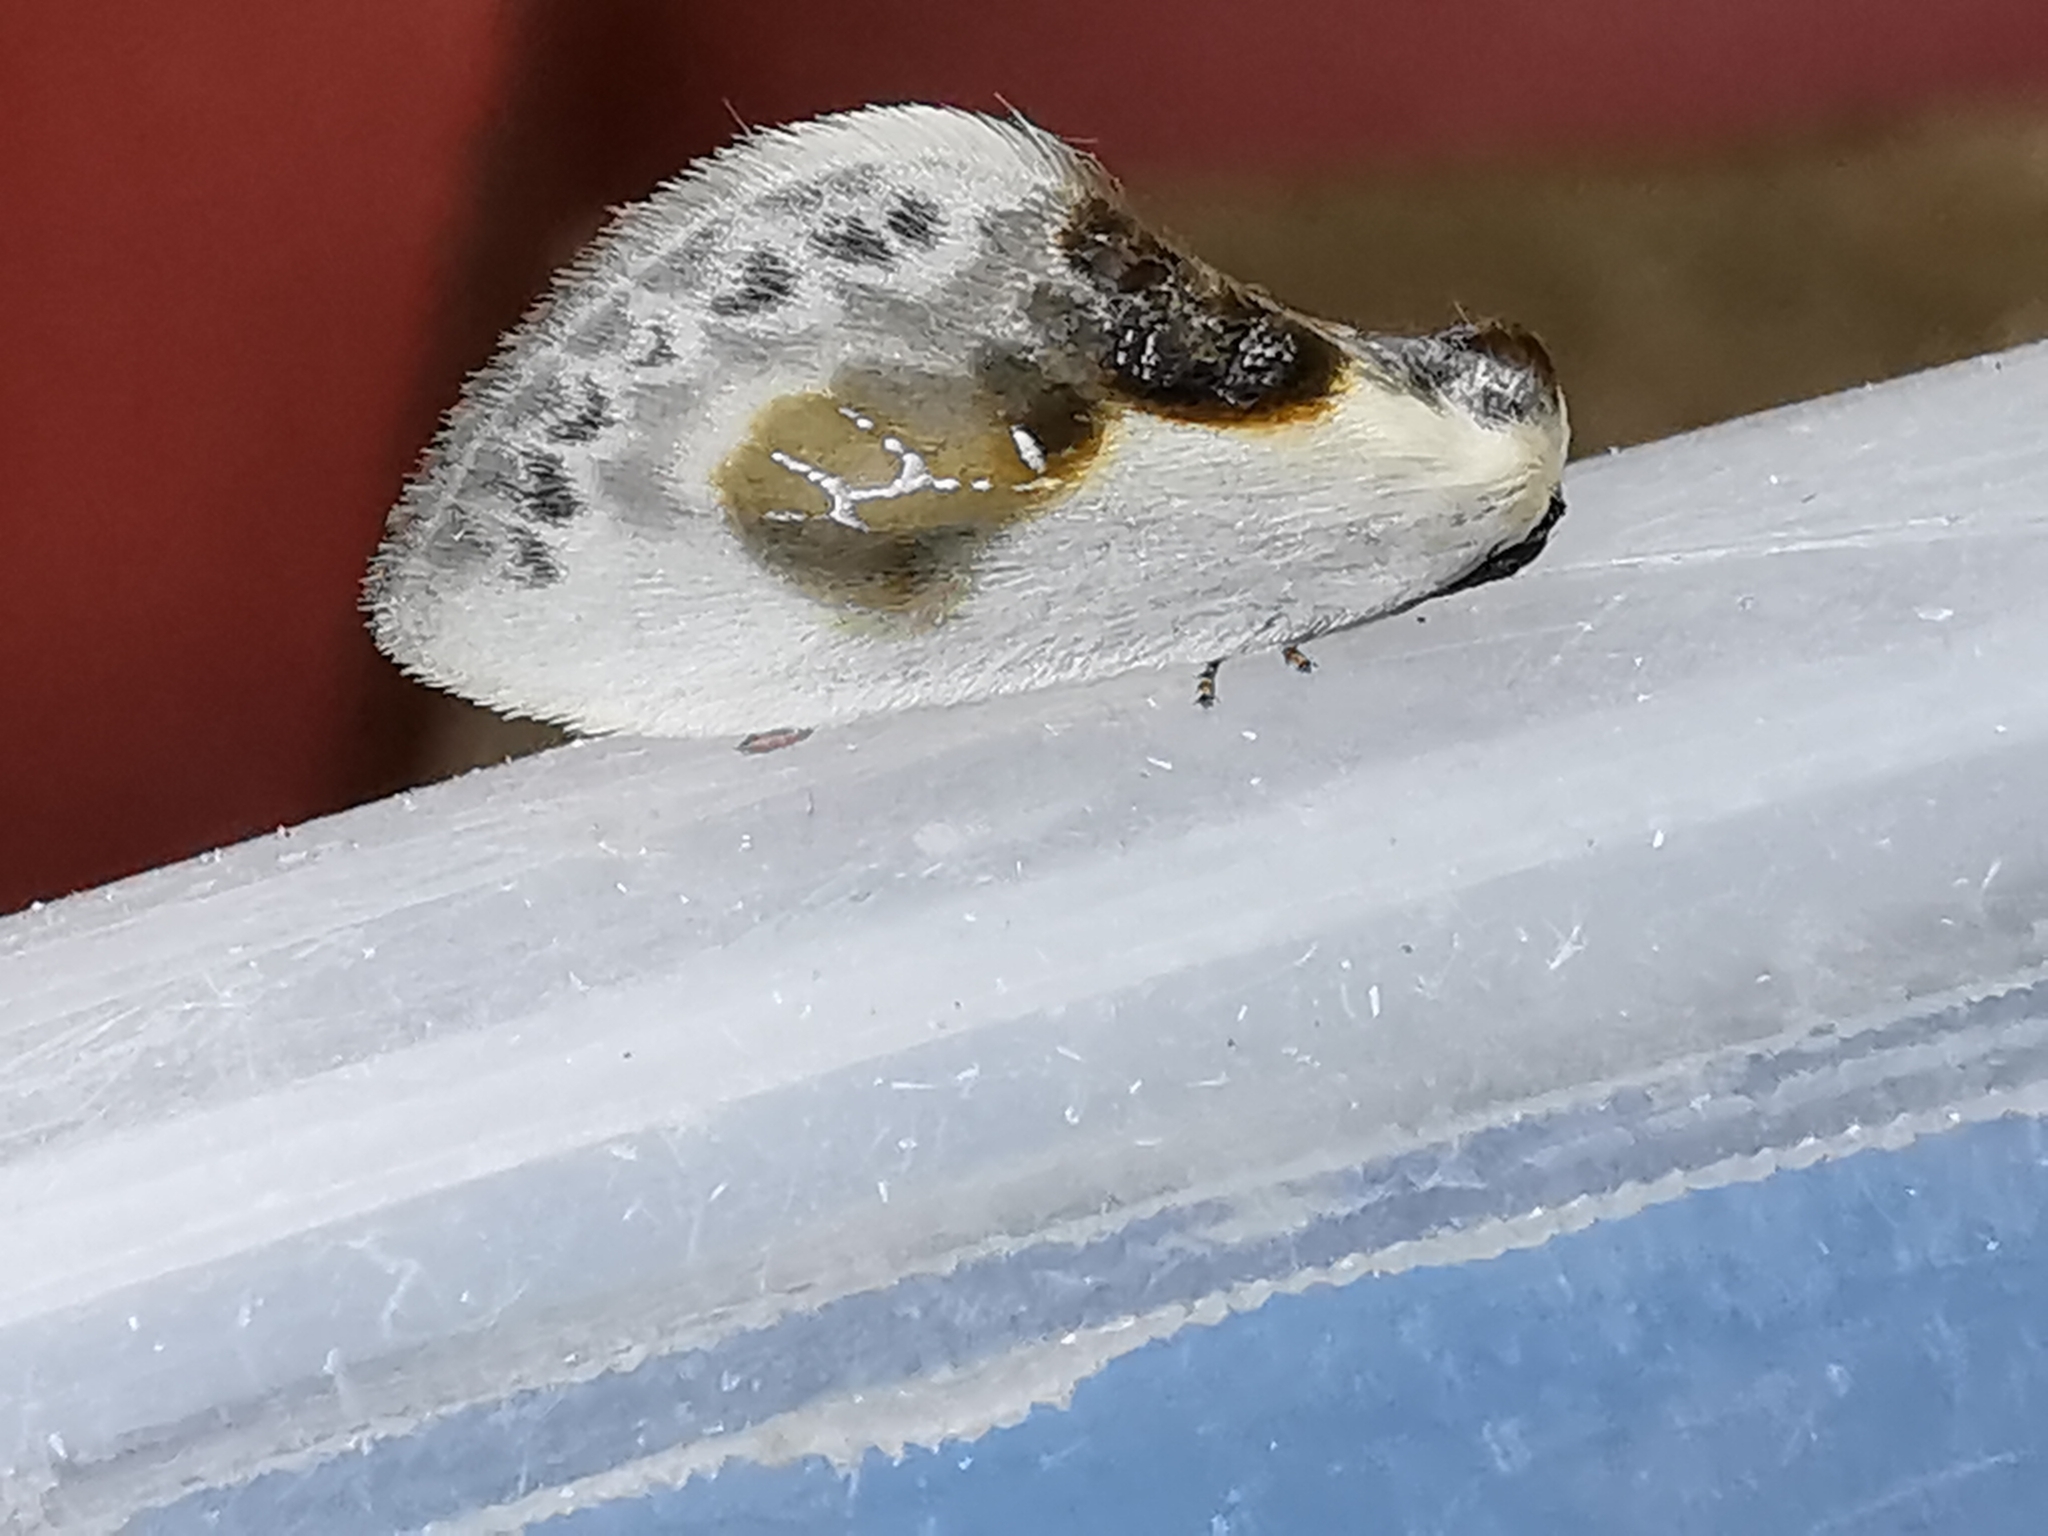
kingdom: Animalia
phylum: Arthropoda
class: Insecta
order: Lepidoptera
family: Drepanidae
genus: Cilix
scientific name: Cilix glaucata
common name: Chinese character
